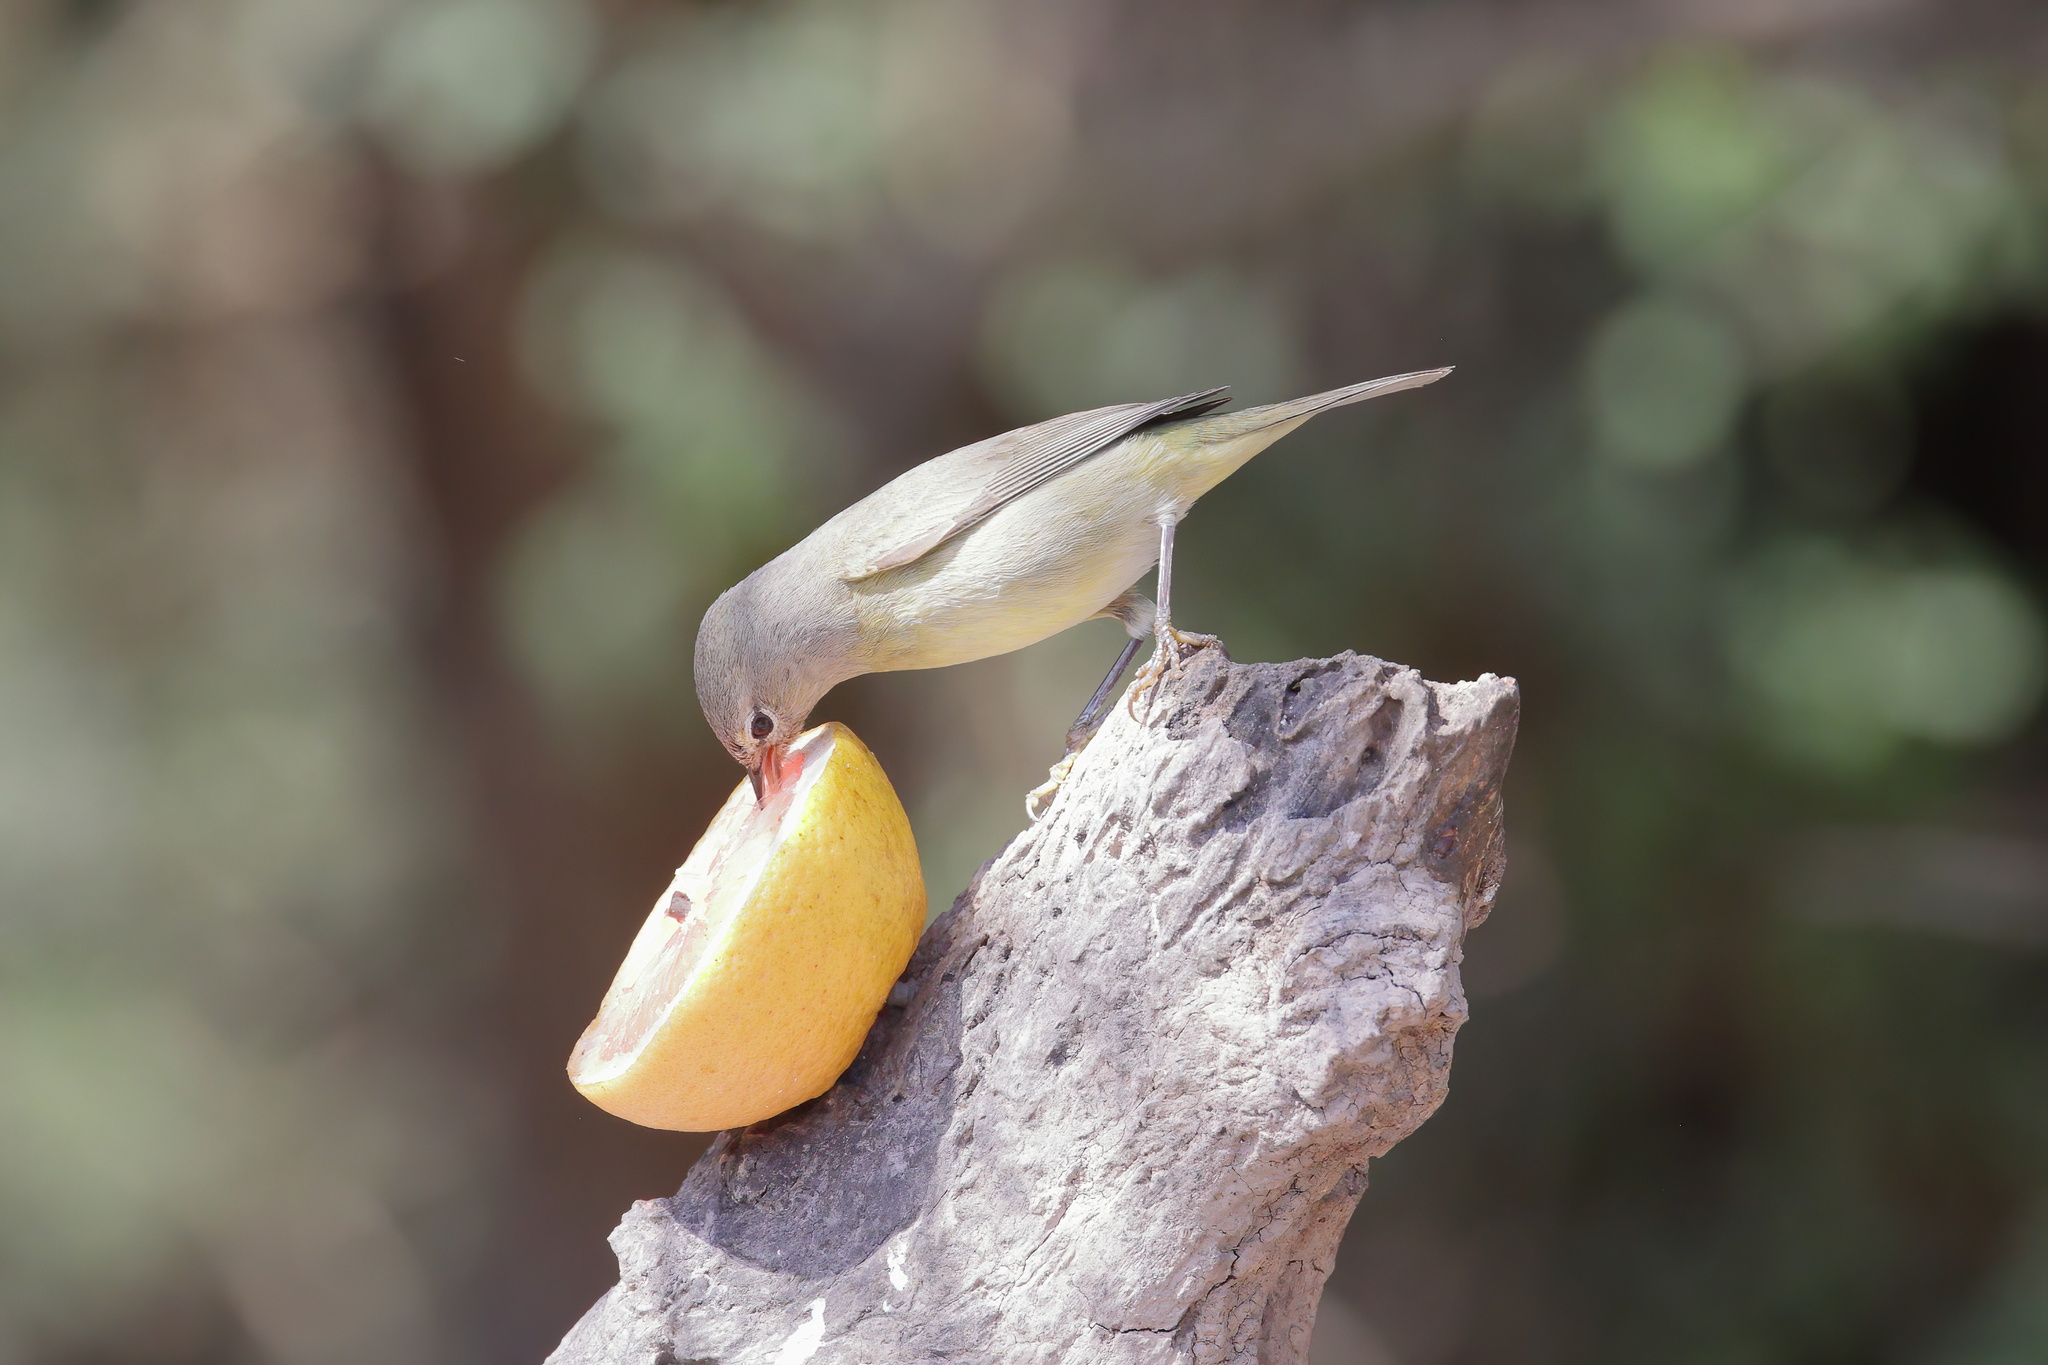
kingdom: Animalia
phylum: Chordata
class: Aves
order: Passeriformes
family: Parulidae
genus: Leiothlypis
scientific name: Leiothlypis celata
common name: Orange-crowned warbler
